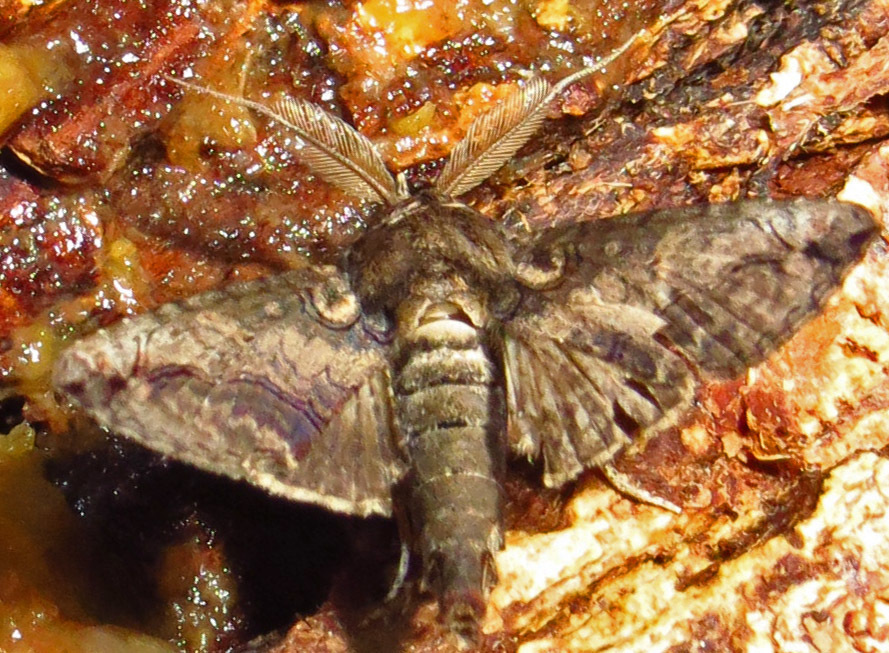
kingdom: Animalia
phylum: Arthropoda
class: Insecta
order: Lepidoptera
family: Euteliidae
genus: Paectes
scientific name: Paectes abrostoloides
